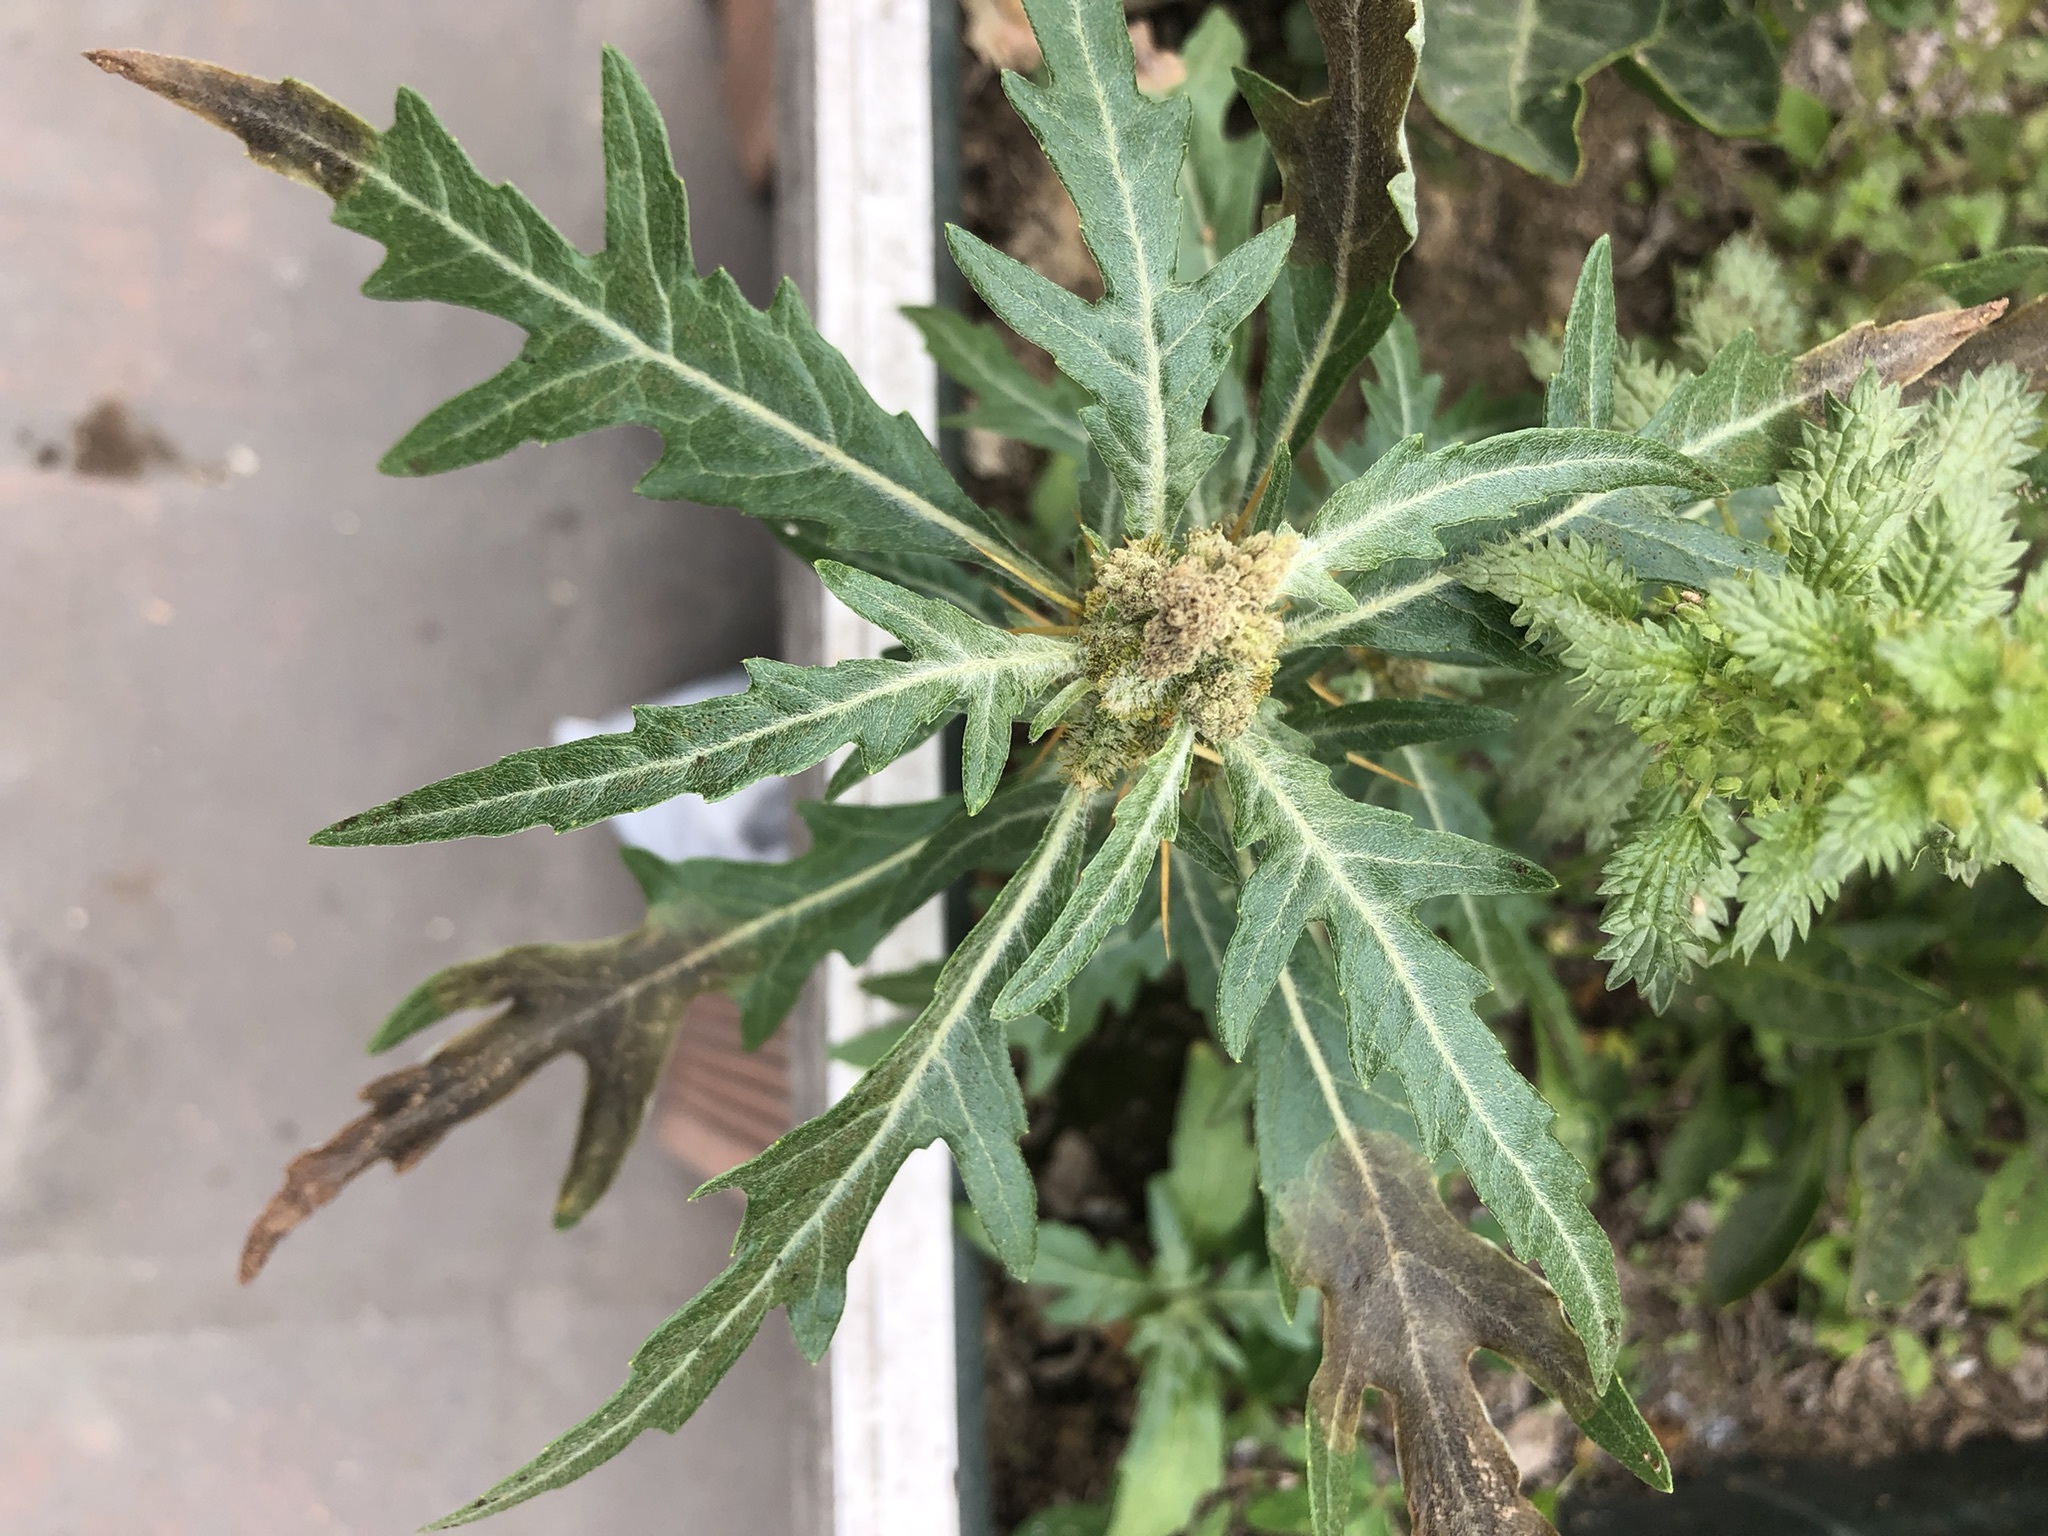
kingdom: Plantae
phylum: Tracheophyta
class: Magnoliopsida
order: Asterales
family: Asteraceae
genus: Xanthium
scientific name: Xanthium spinosum
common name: Spiny cocklebur
